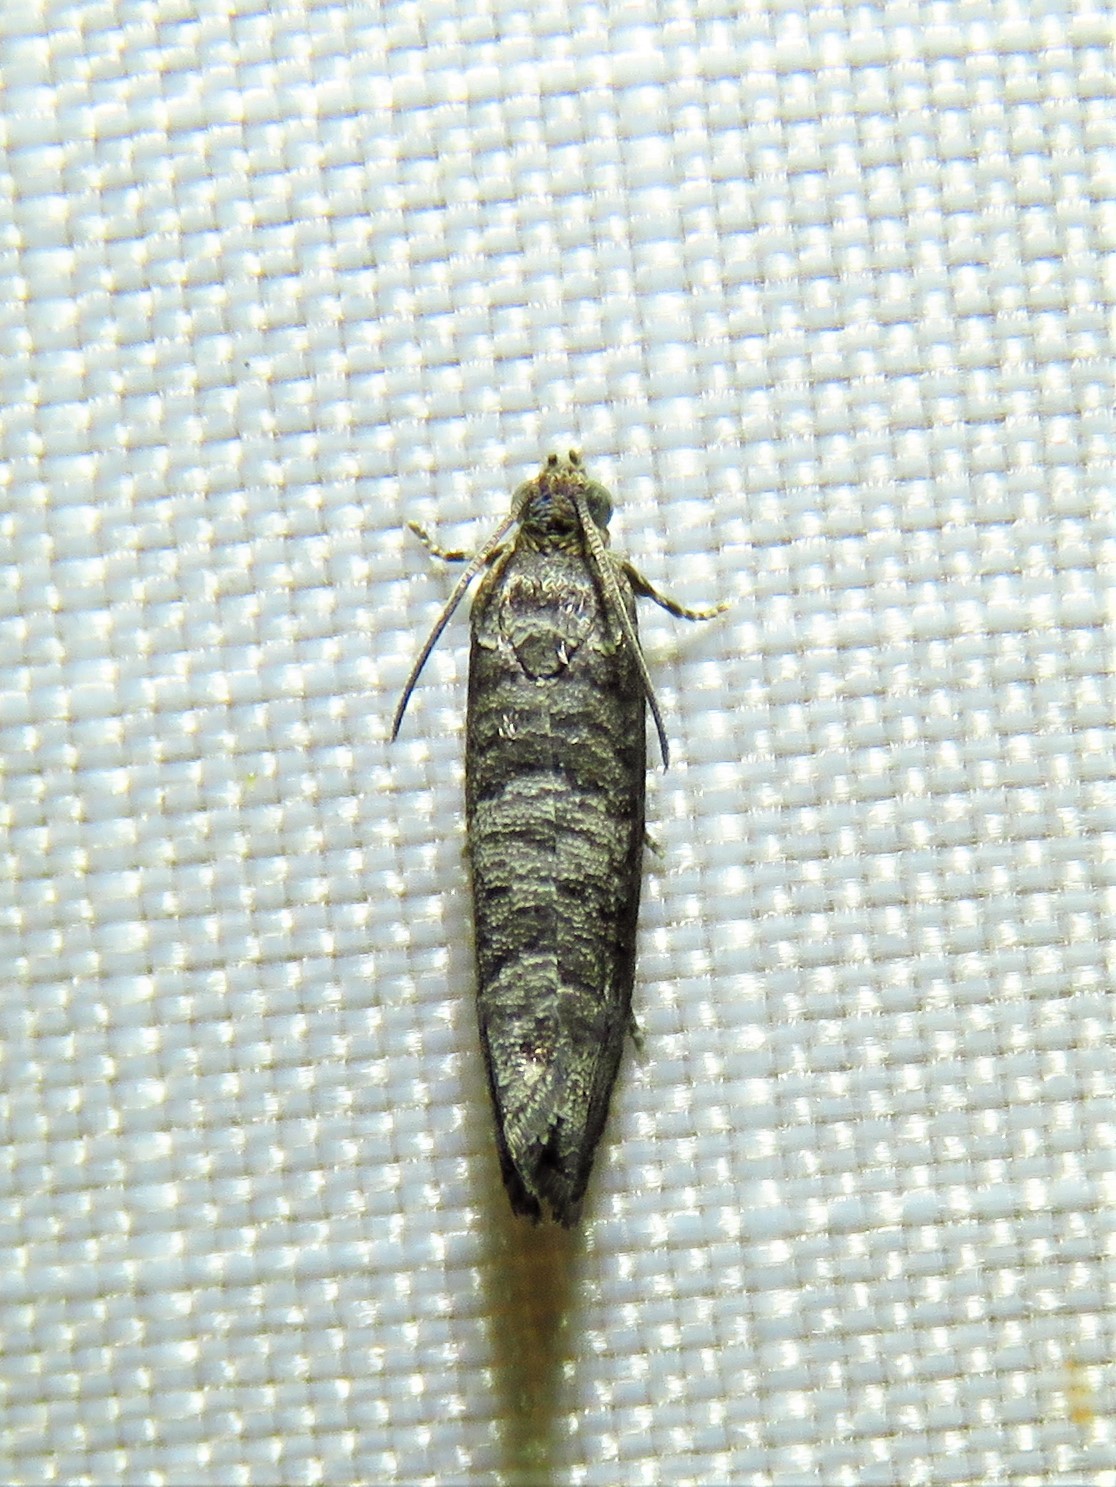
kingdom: Animalia
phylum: Arthropoda
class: Insecta
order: Lepidoptera
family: Noctuidae
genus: Aspila
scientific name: Aspila
